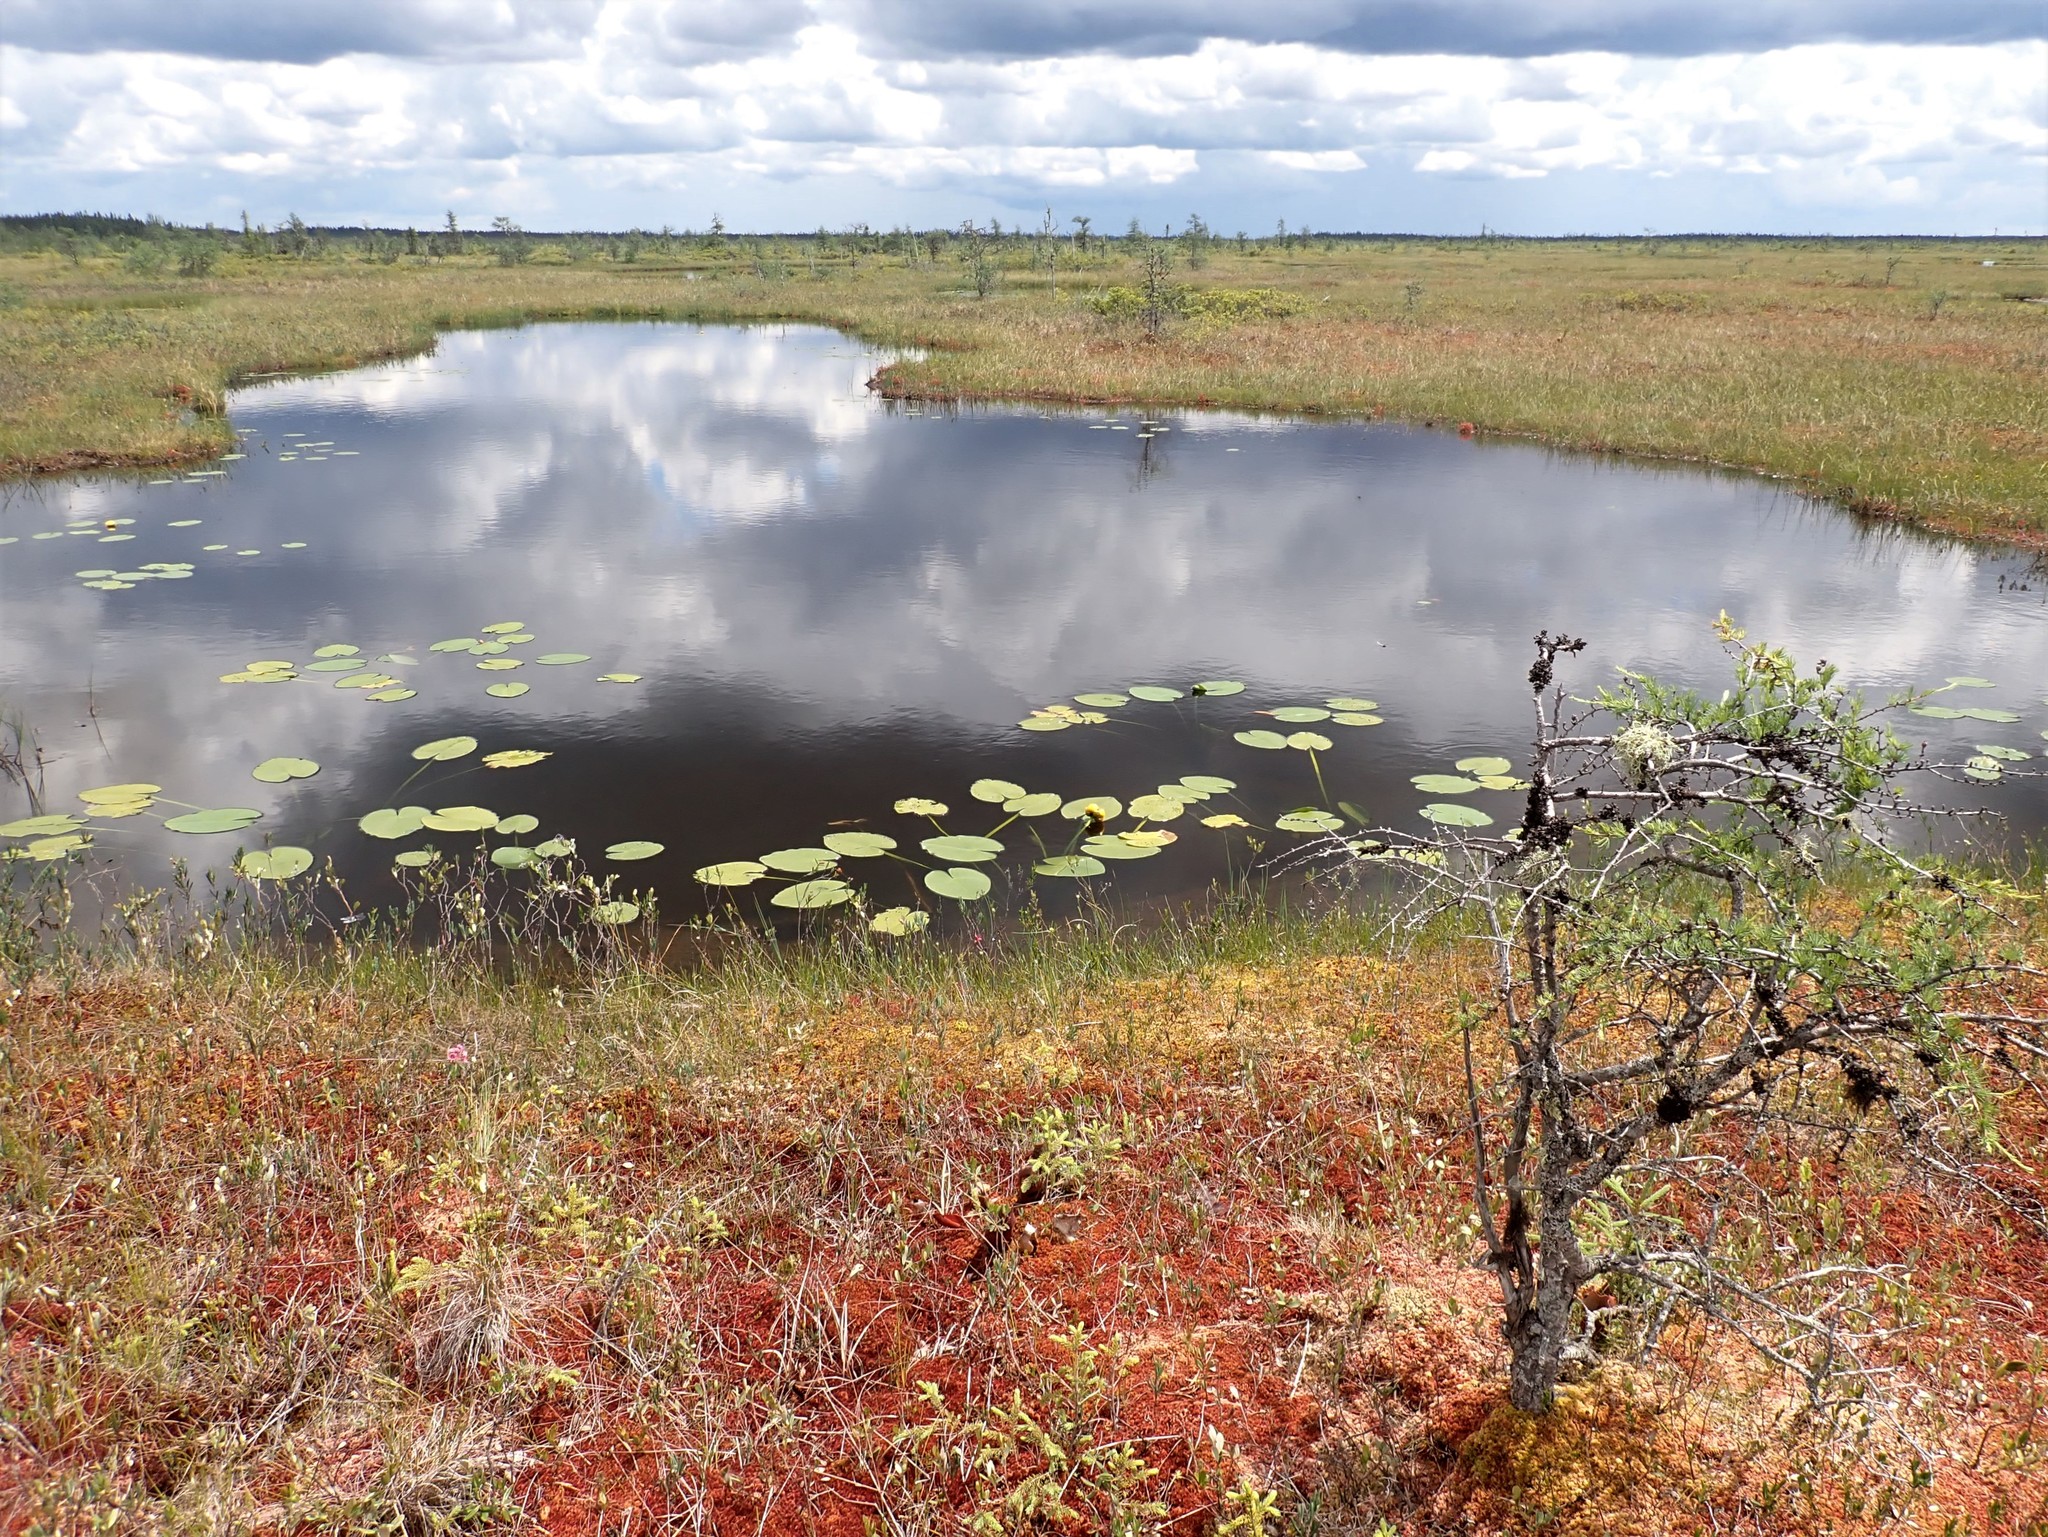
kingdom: Plantae
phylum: Tracheophyta
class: Pinopsida
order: Pinales
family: Pinaceae
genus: Larix
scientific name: Larix laricina
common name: American larch
